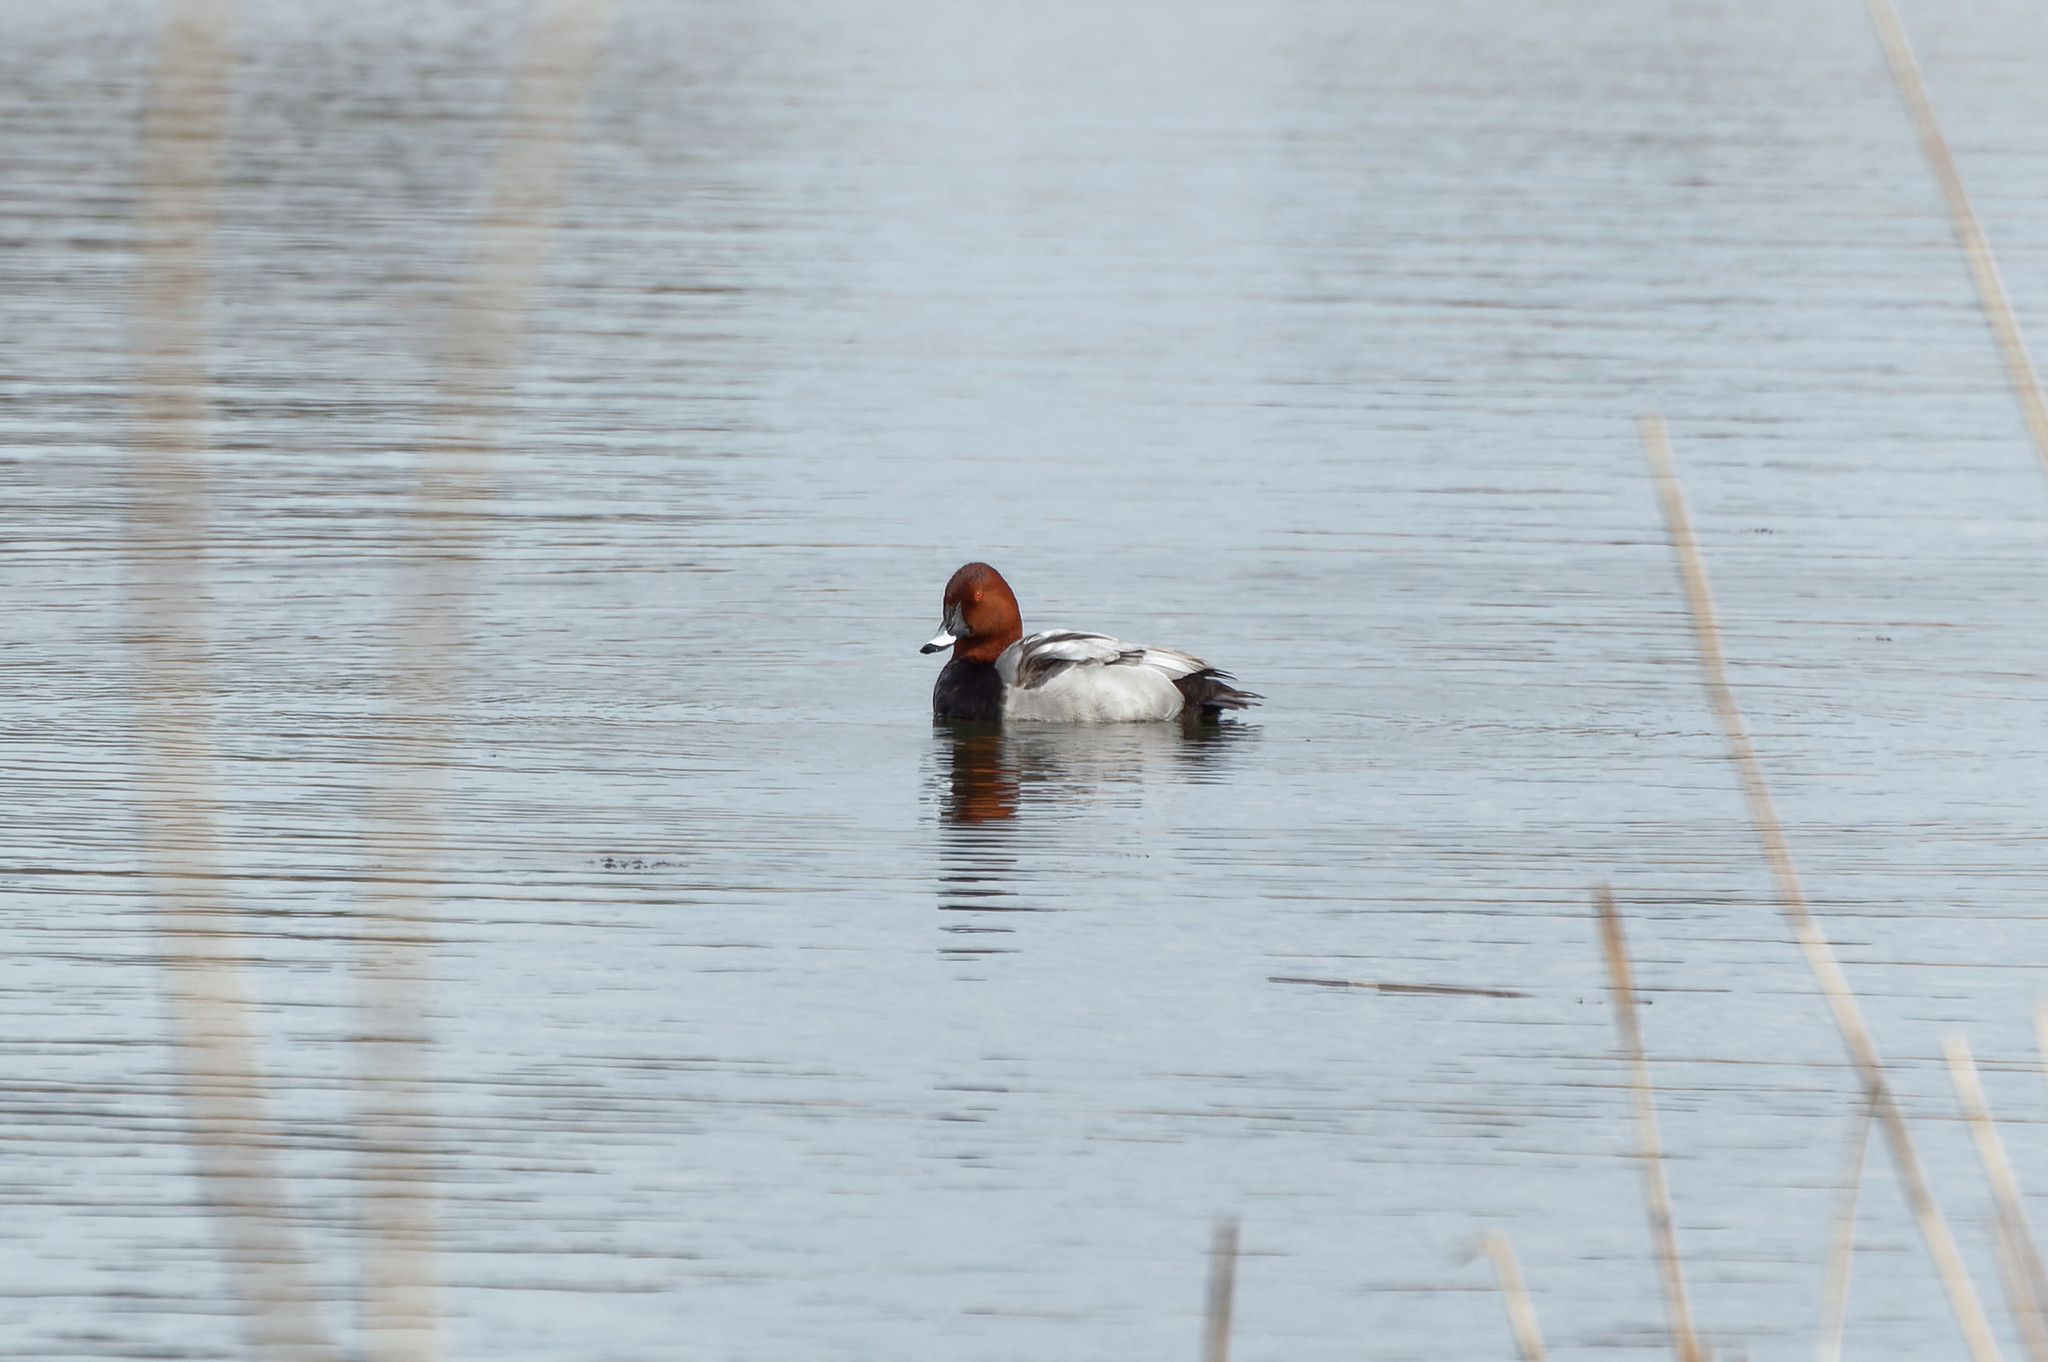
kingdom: Animalia
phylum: Chordata
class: Aves
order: Anseriformes
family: Anatidae
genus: Aythya
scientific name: Aythya ferina
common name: Common pochard
